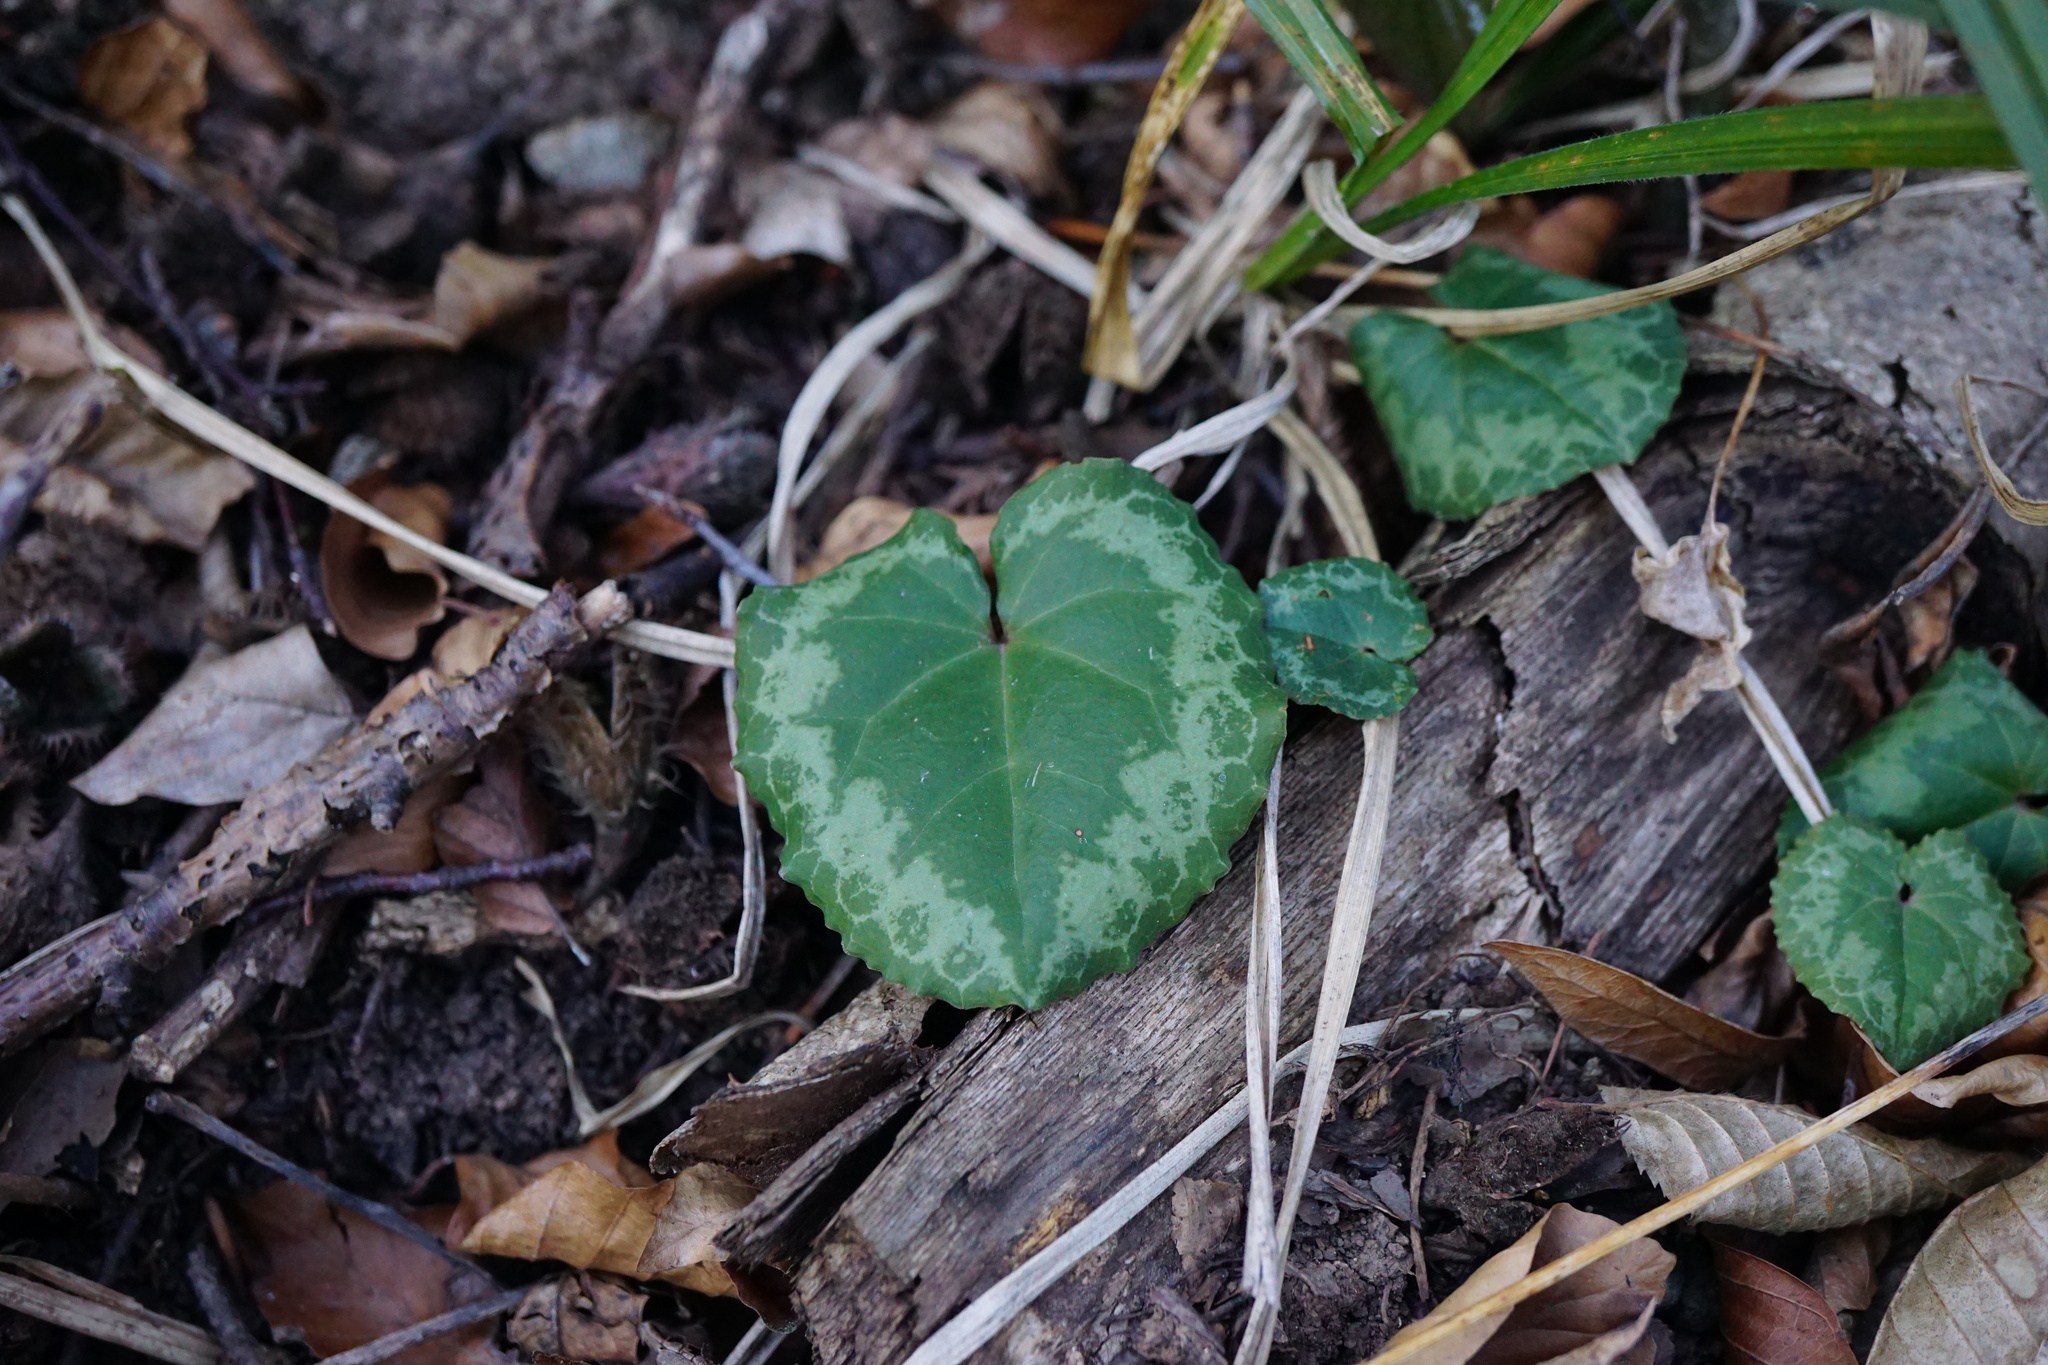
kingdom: Plantae
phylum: Tracheophyta
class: Magnoliopsida
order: Ericales
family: Primulaceae
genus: Cyclamen
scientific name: Cyclamen purpurascens
